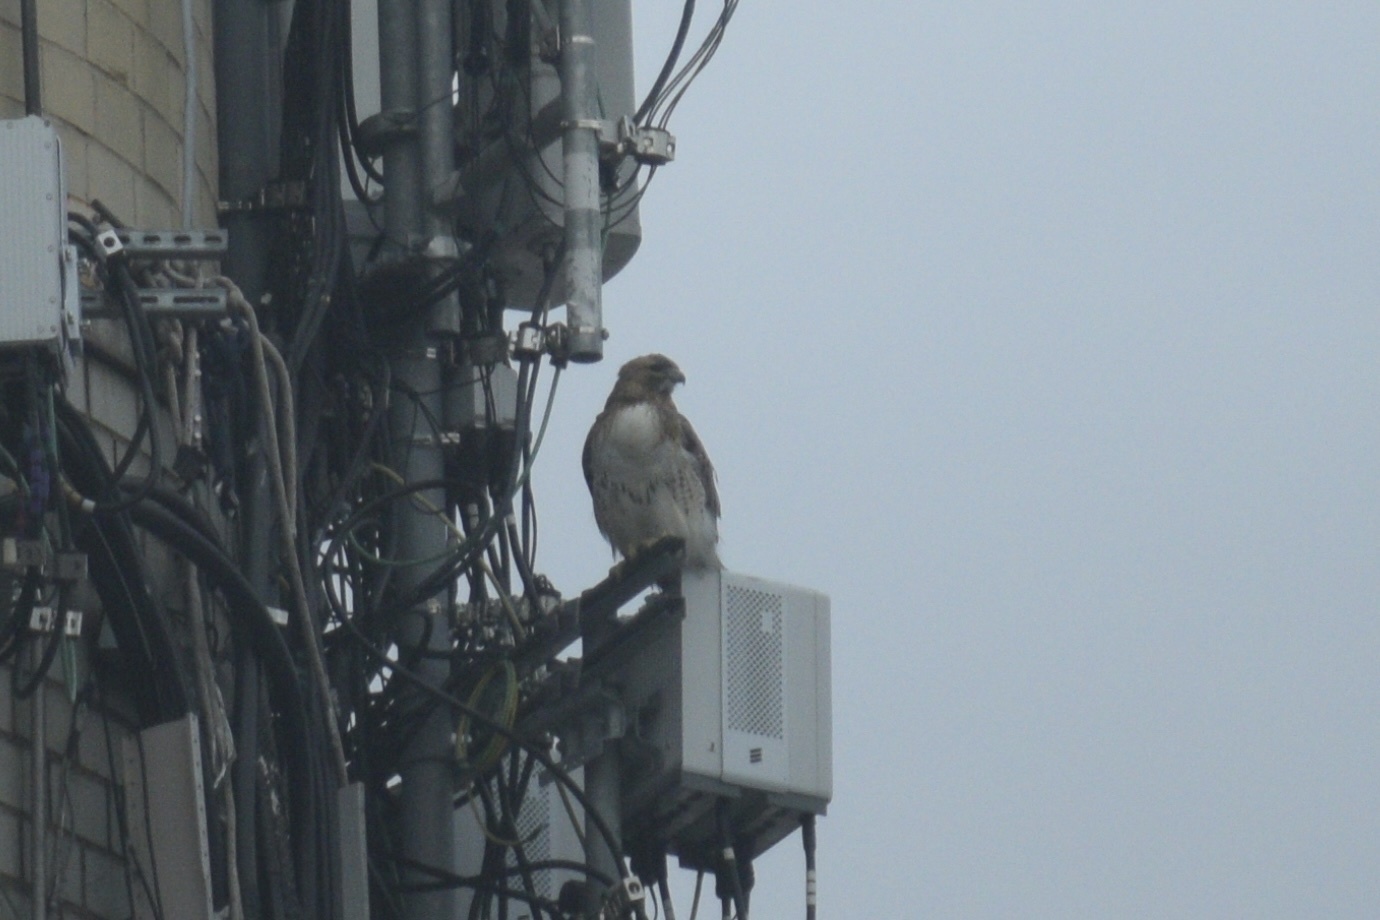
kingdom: Animalia
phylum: Chordata
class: Aves
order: Accipitriformes
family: Accipitridae
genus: Buteo
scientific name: Buteo jamaicensis
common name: Red-tailed hawk
